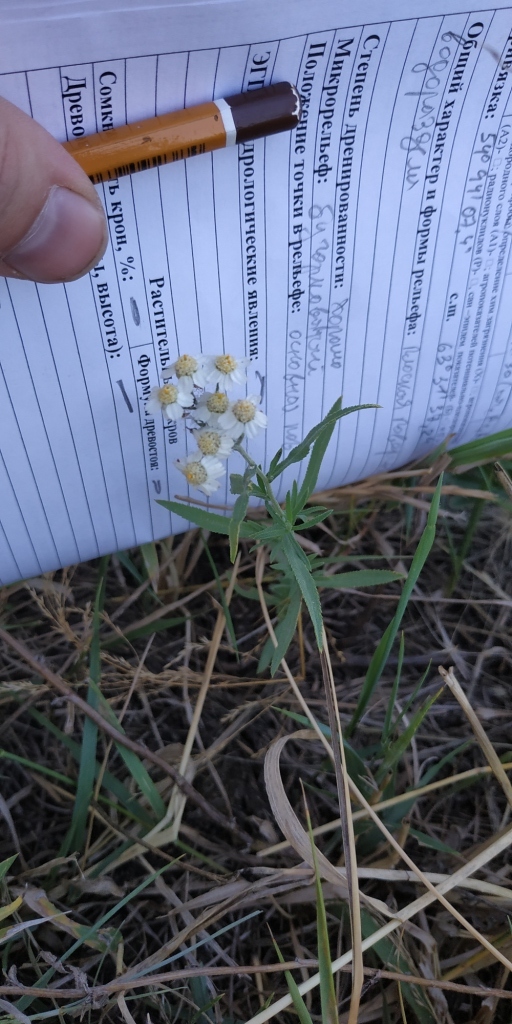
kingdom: Plantae
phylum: Tracheophyta
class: Magnoliopsida
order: Asterales
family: Asteraceae
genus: Achillea
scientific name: Achillea salicifolia
